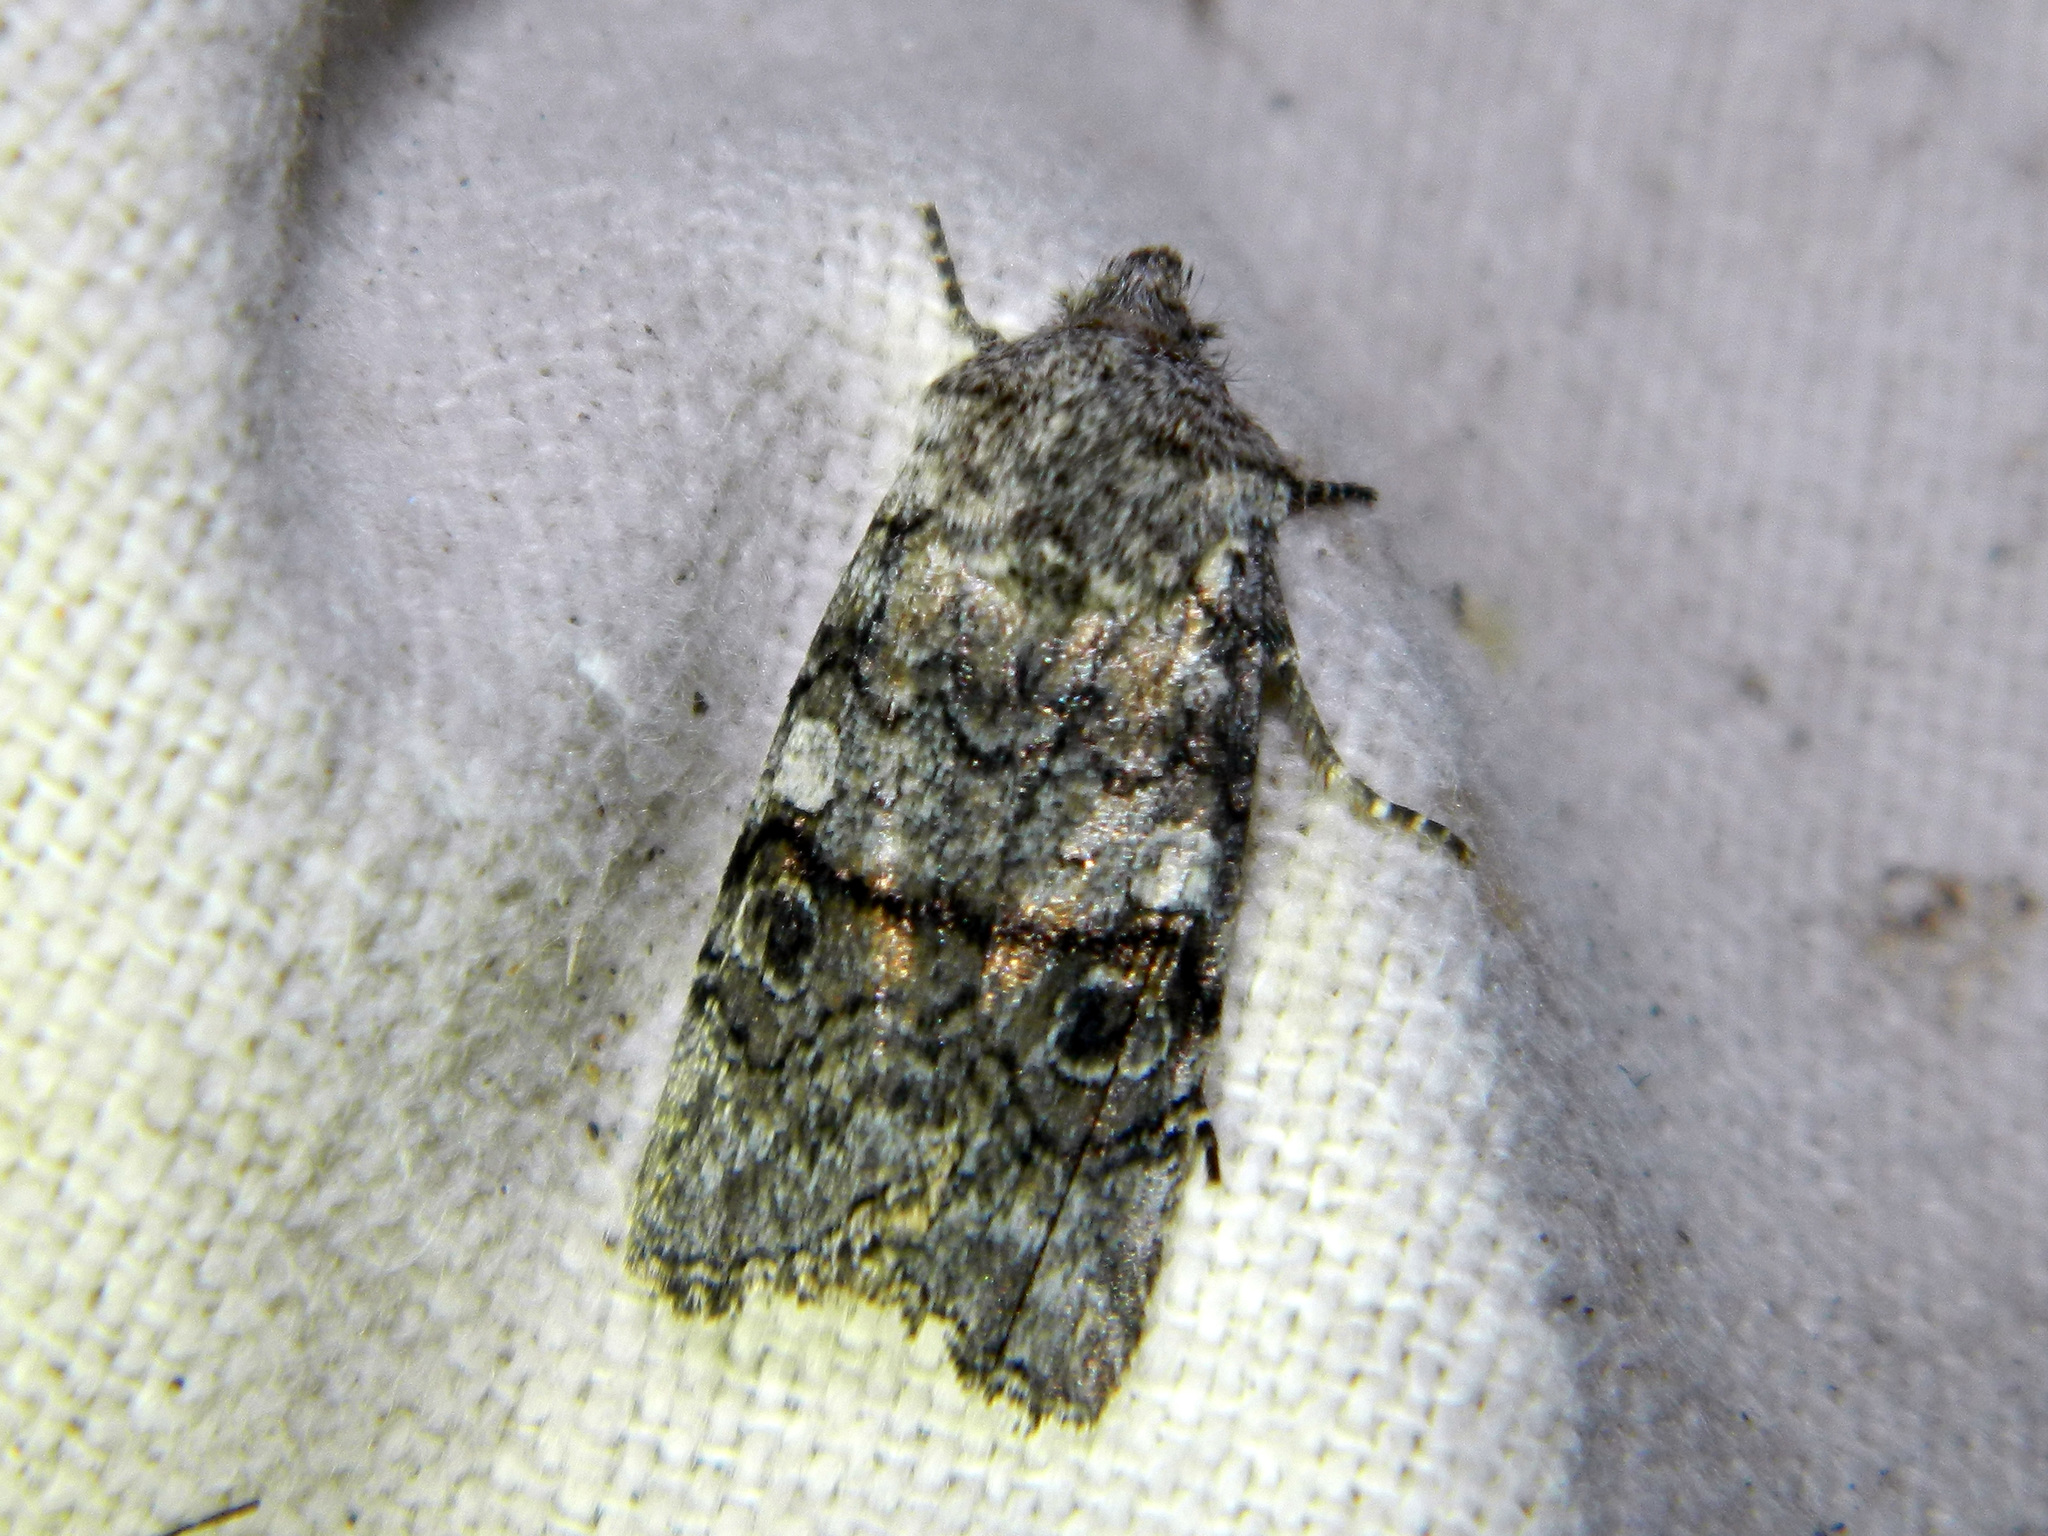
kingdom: Animalia
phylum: Arthropoda
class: Insecta
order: Lepidoptera
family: Noctuidae
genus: Litholomia
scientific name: Litholomia napaea
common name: False pinion moth
